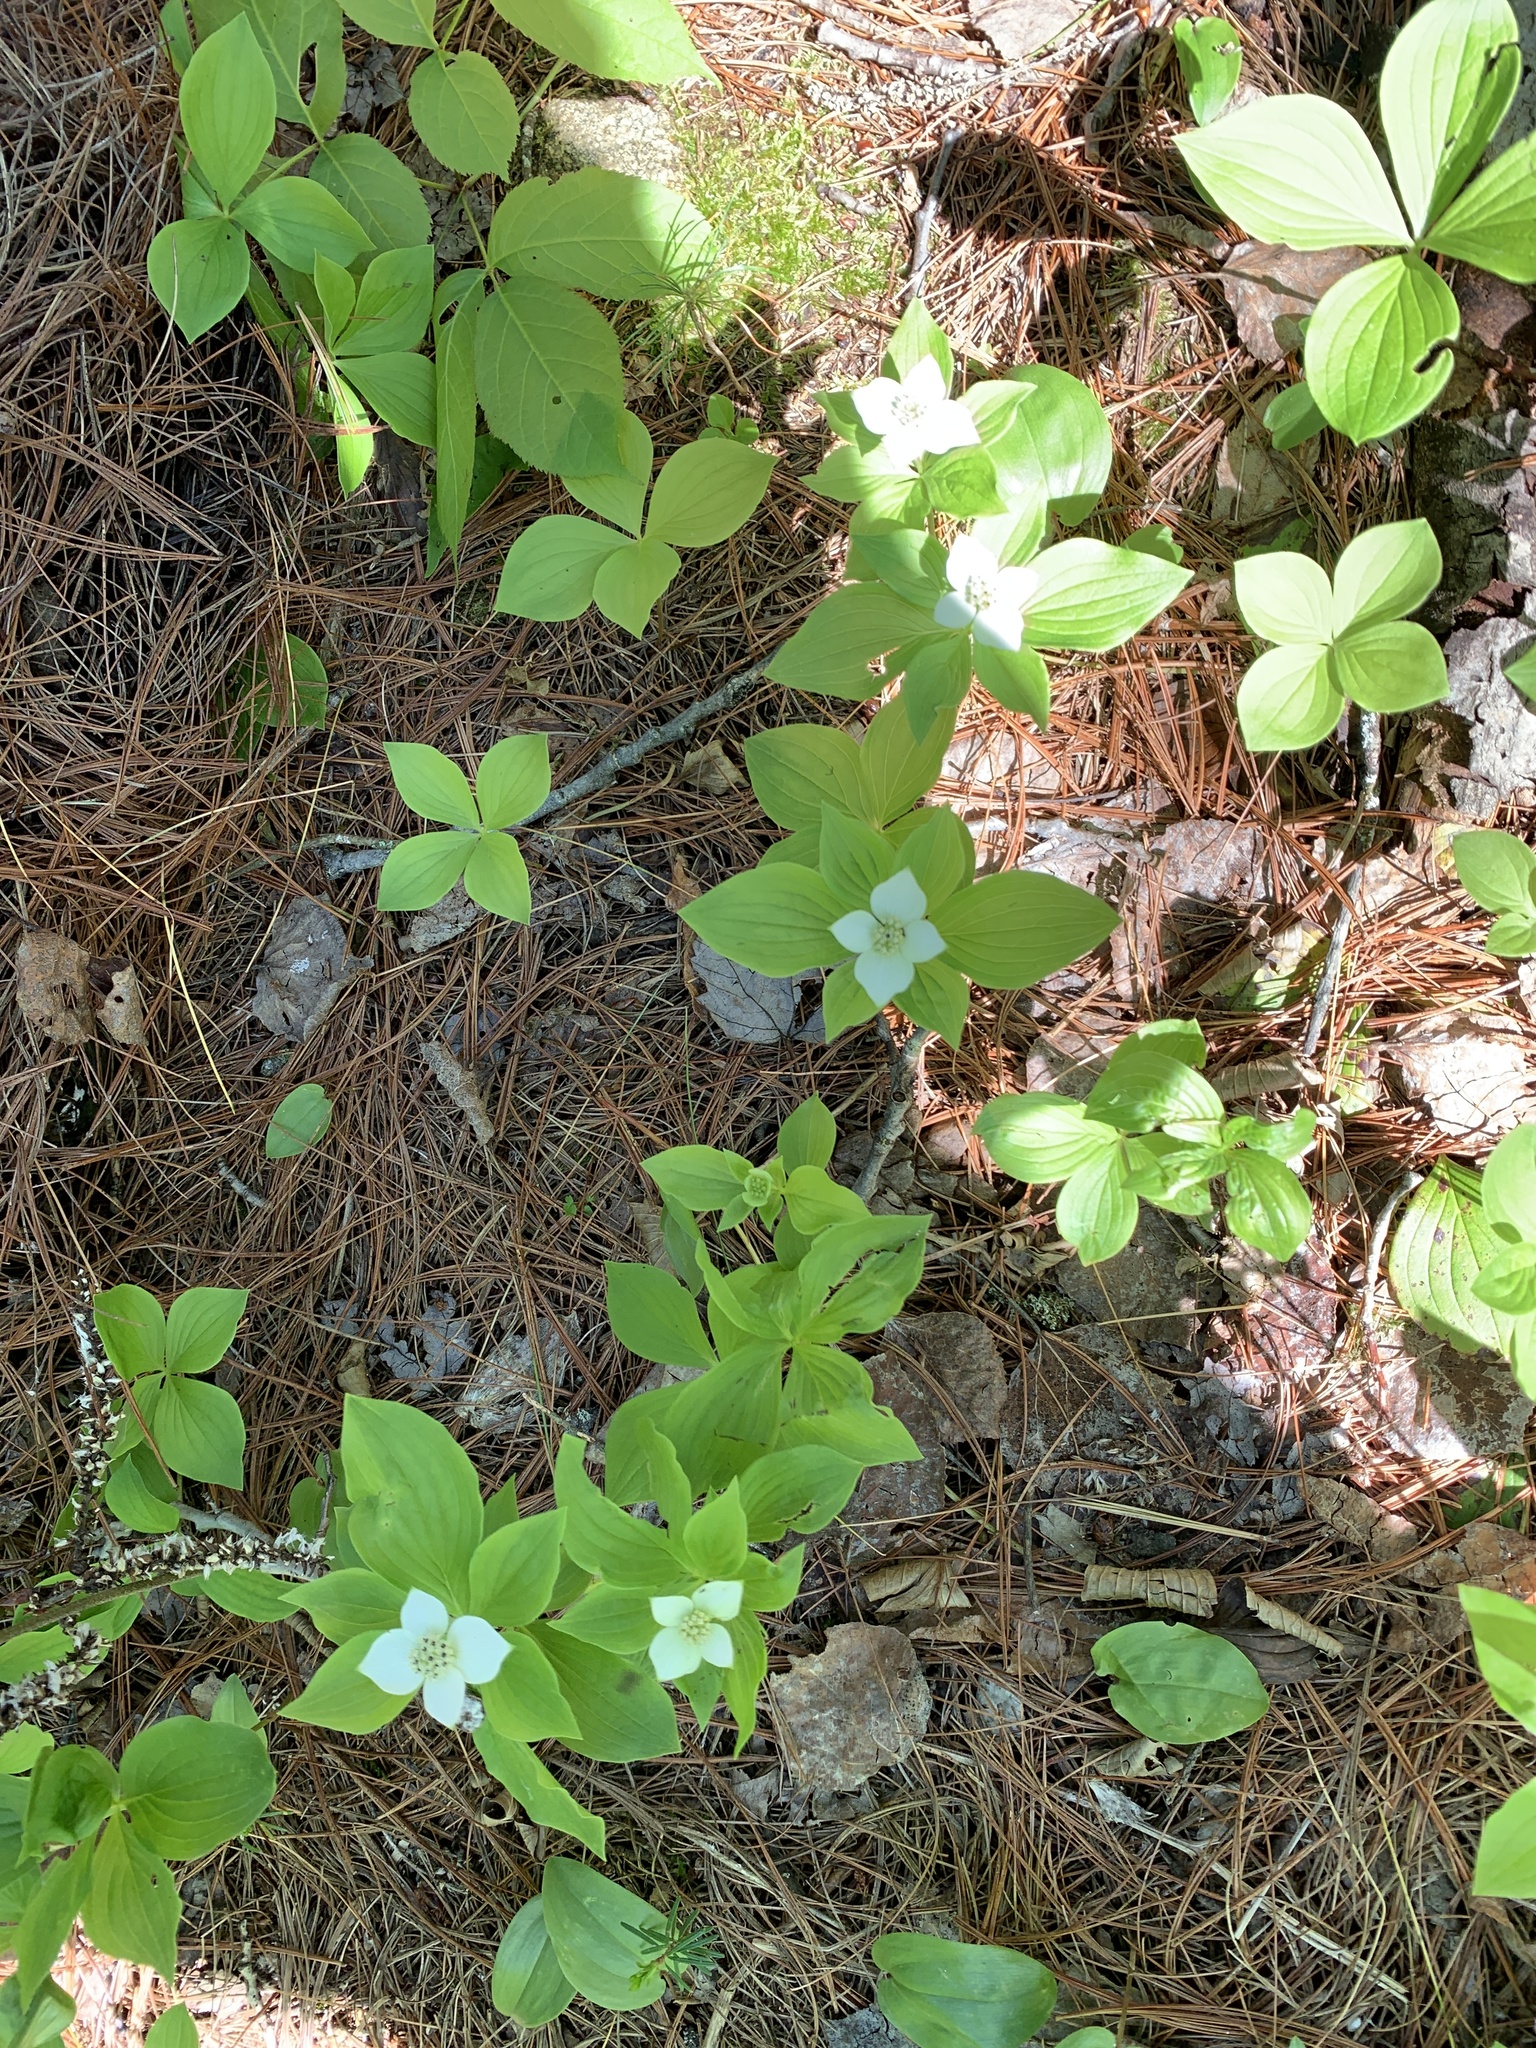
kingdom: Plantae
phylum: Tracheophyta
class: Magnoliopsida
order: Cornales
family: Cornaceae
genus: Cornus
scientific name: Cornus canadensis
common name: Creeping dogwood
